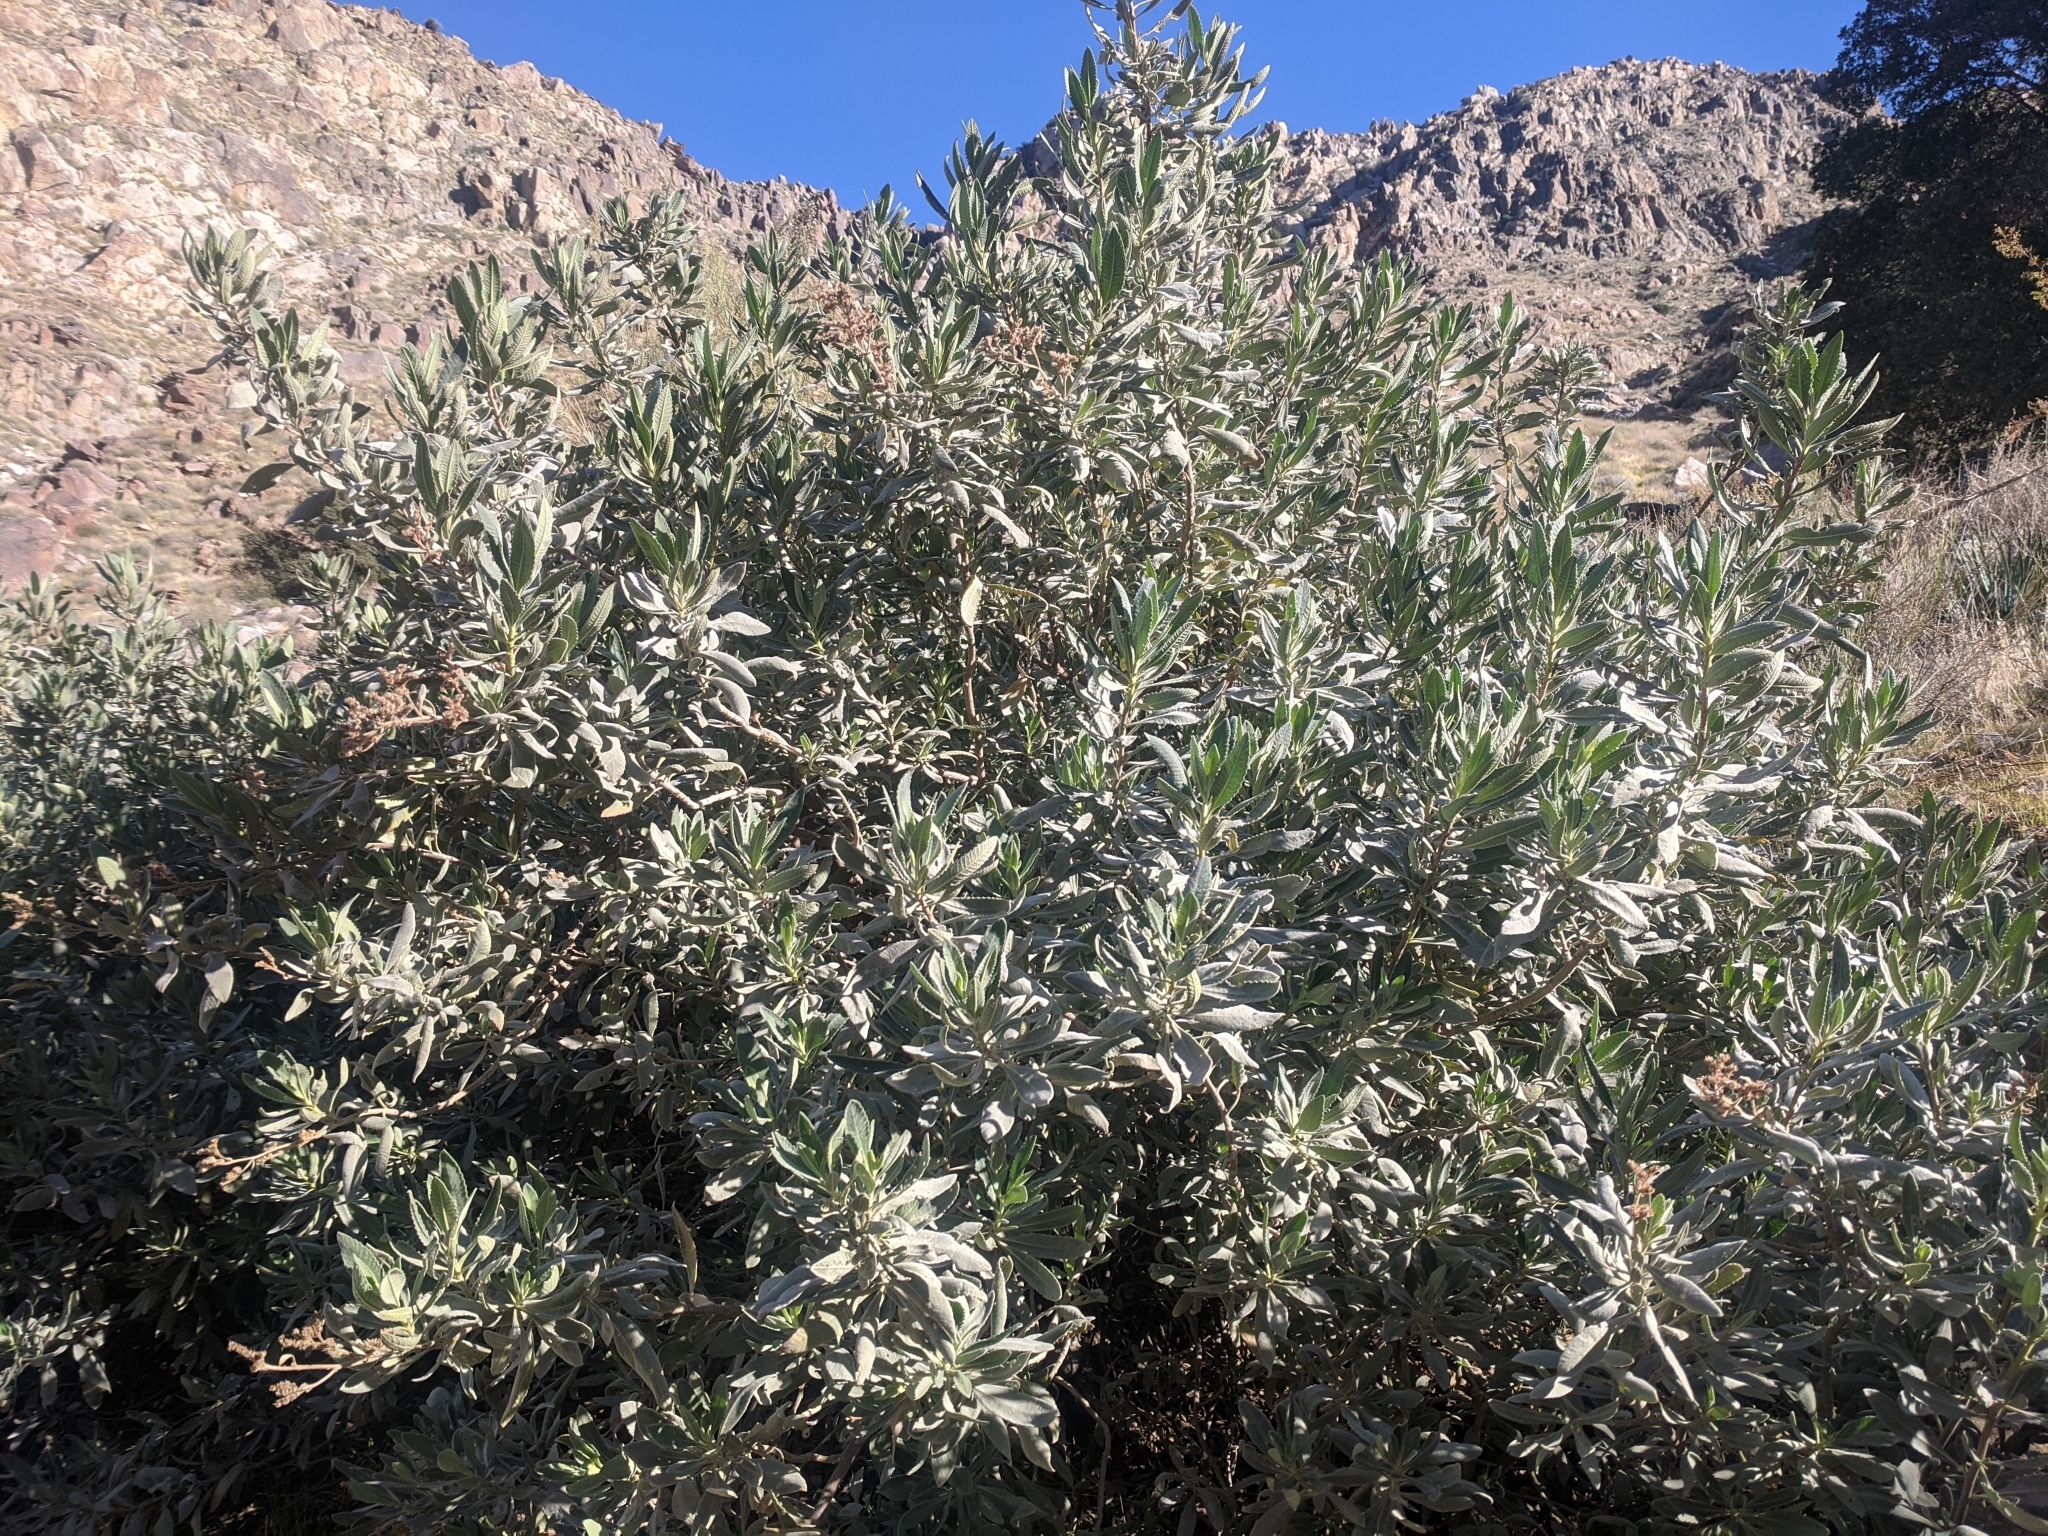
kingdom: Plantae
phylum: Tracheophyta
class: Magnoliopsida
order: Boraginales
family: Namaceae
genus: Eriodictyon
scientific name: Eriodictyon crassifolium
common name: Thick-leaf yerba-santa
